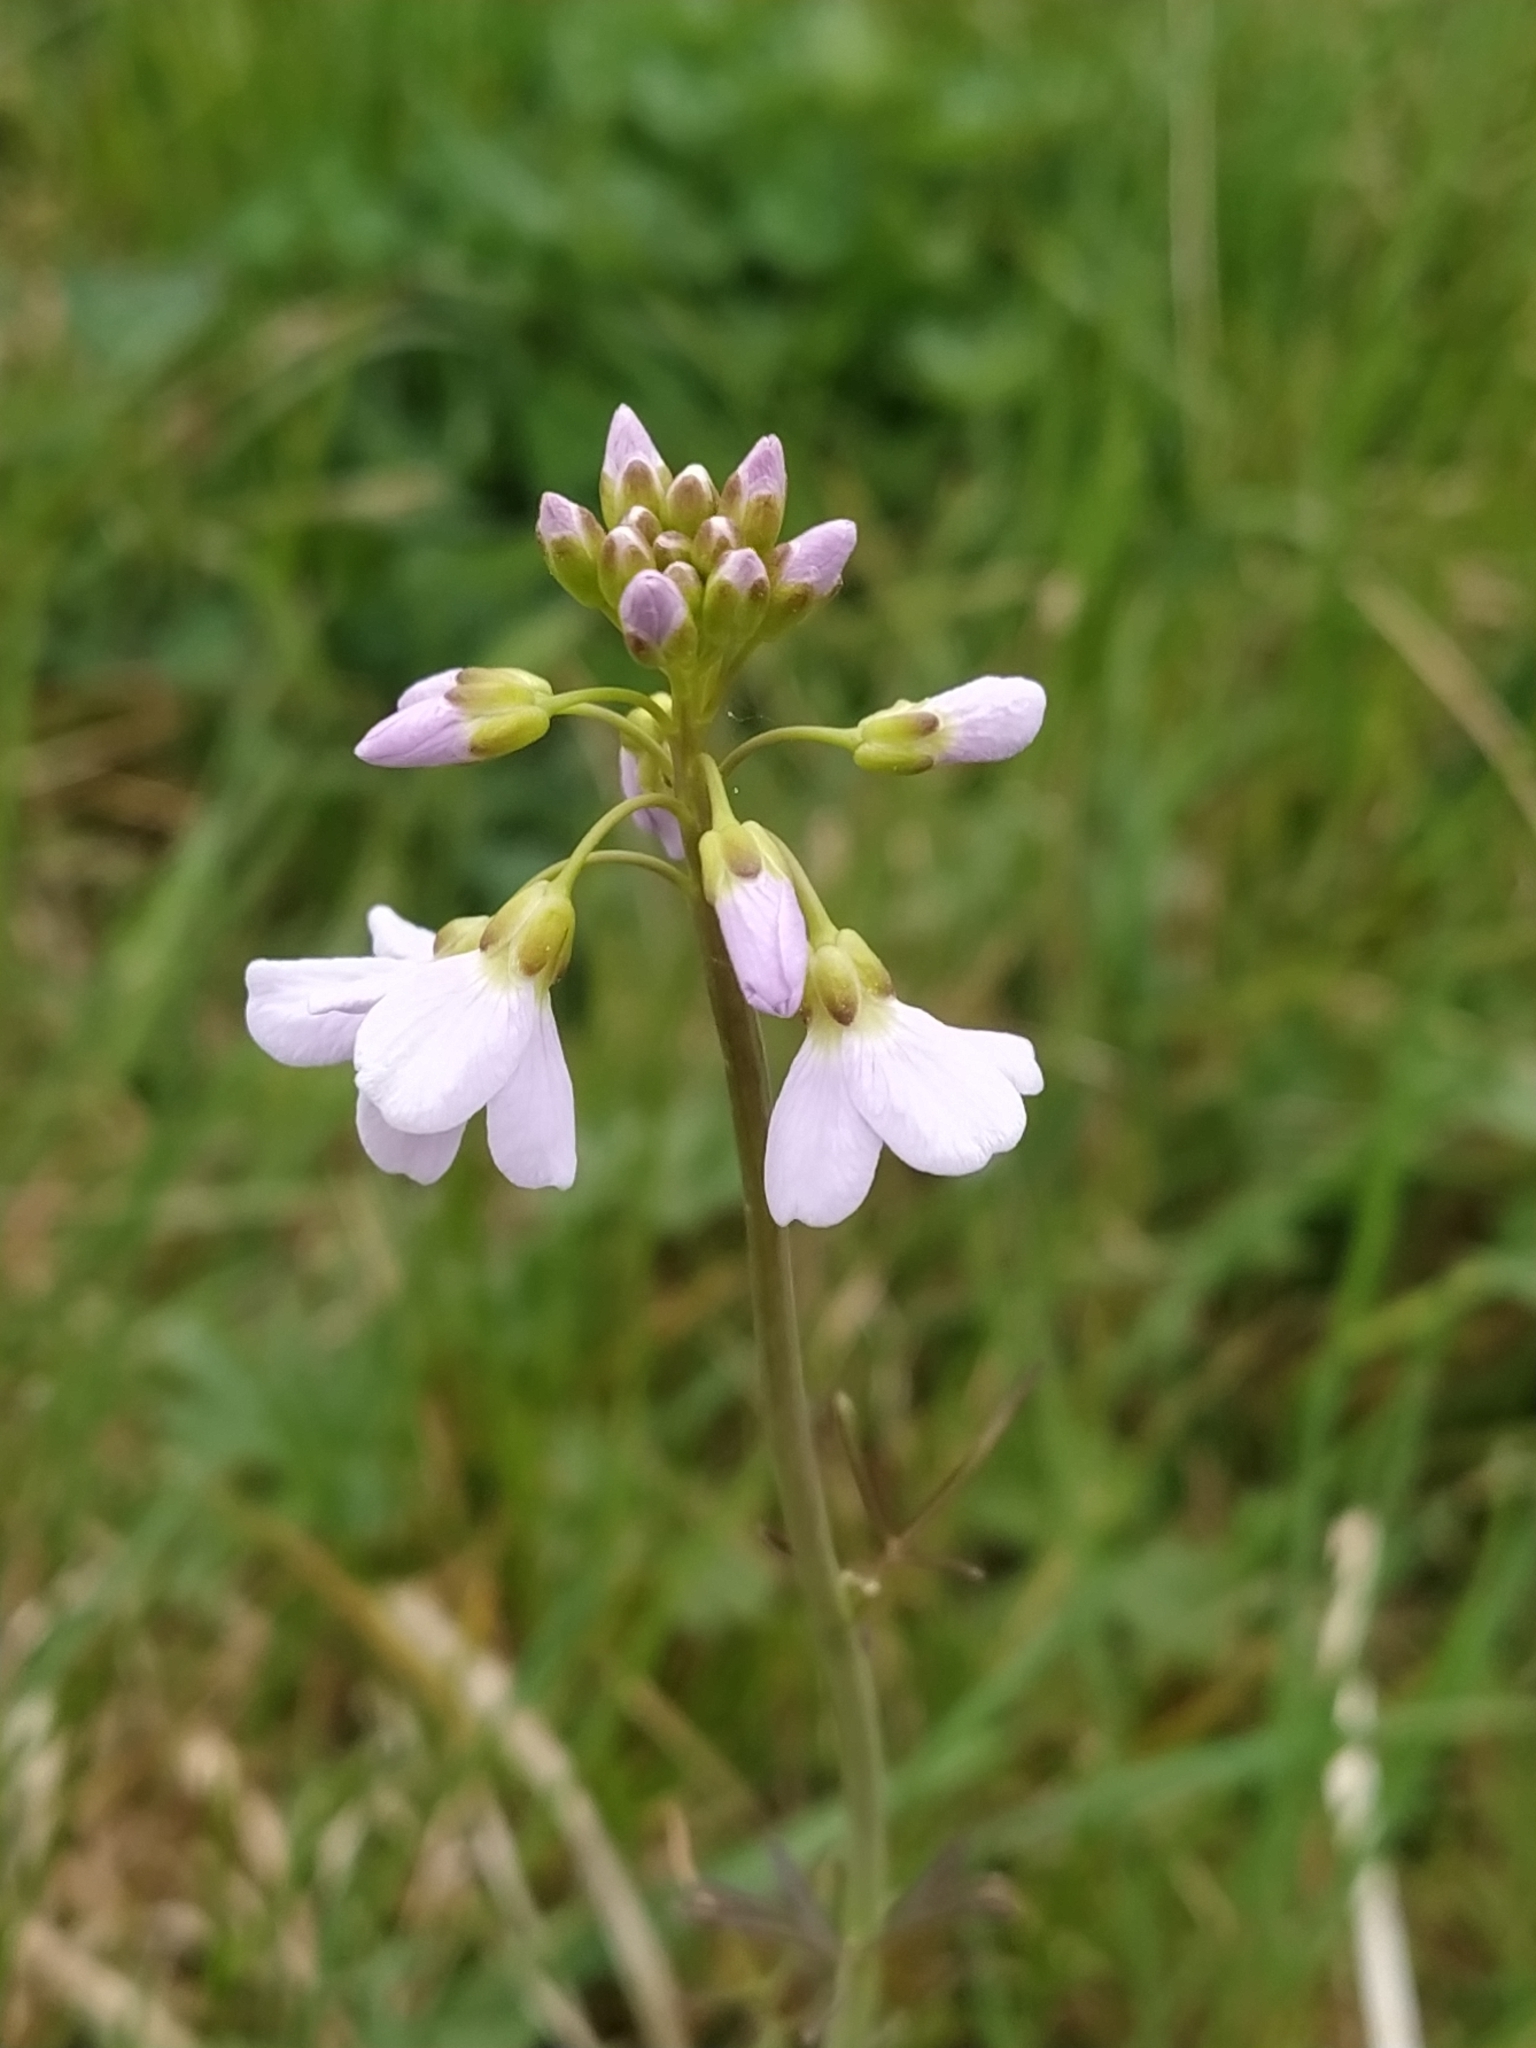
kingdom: Plantae
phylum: Tracheophyta
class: Magnoliopsida
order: Brassicales
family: Brassicaceae
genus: Cardamine
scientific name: Cardamine pratensis
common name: Cuckoo flower
